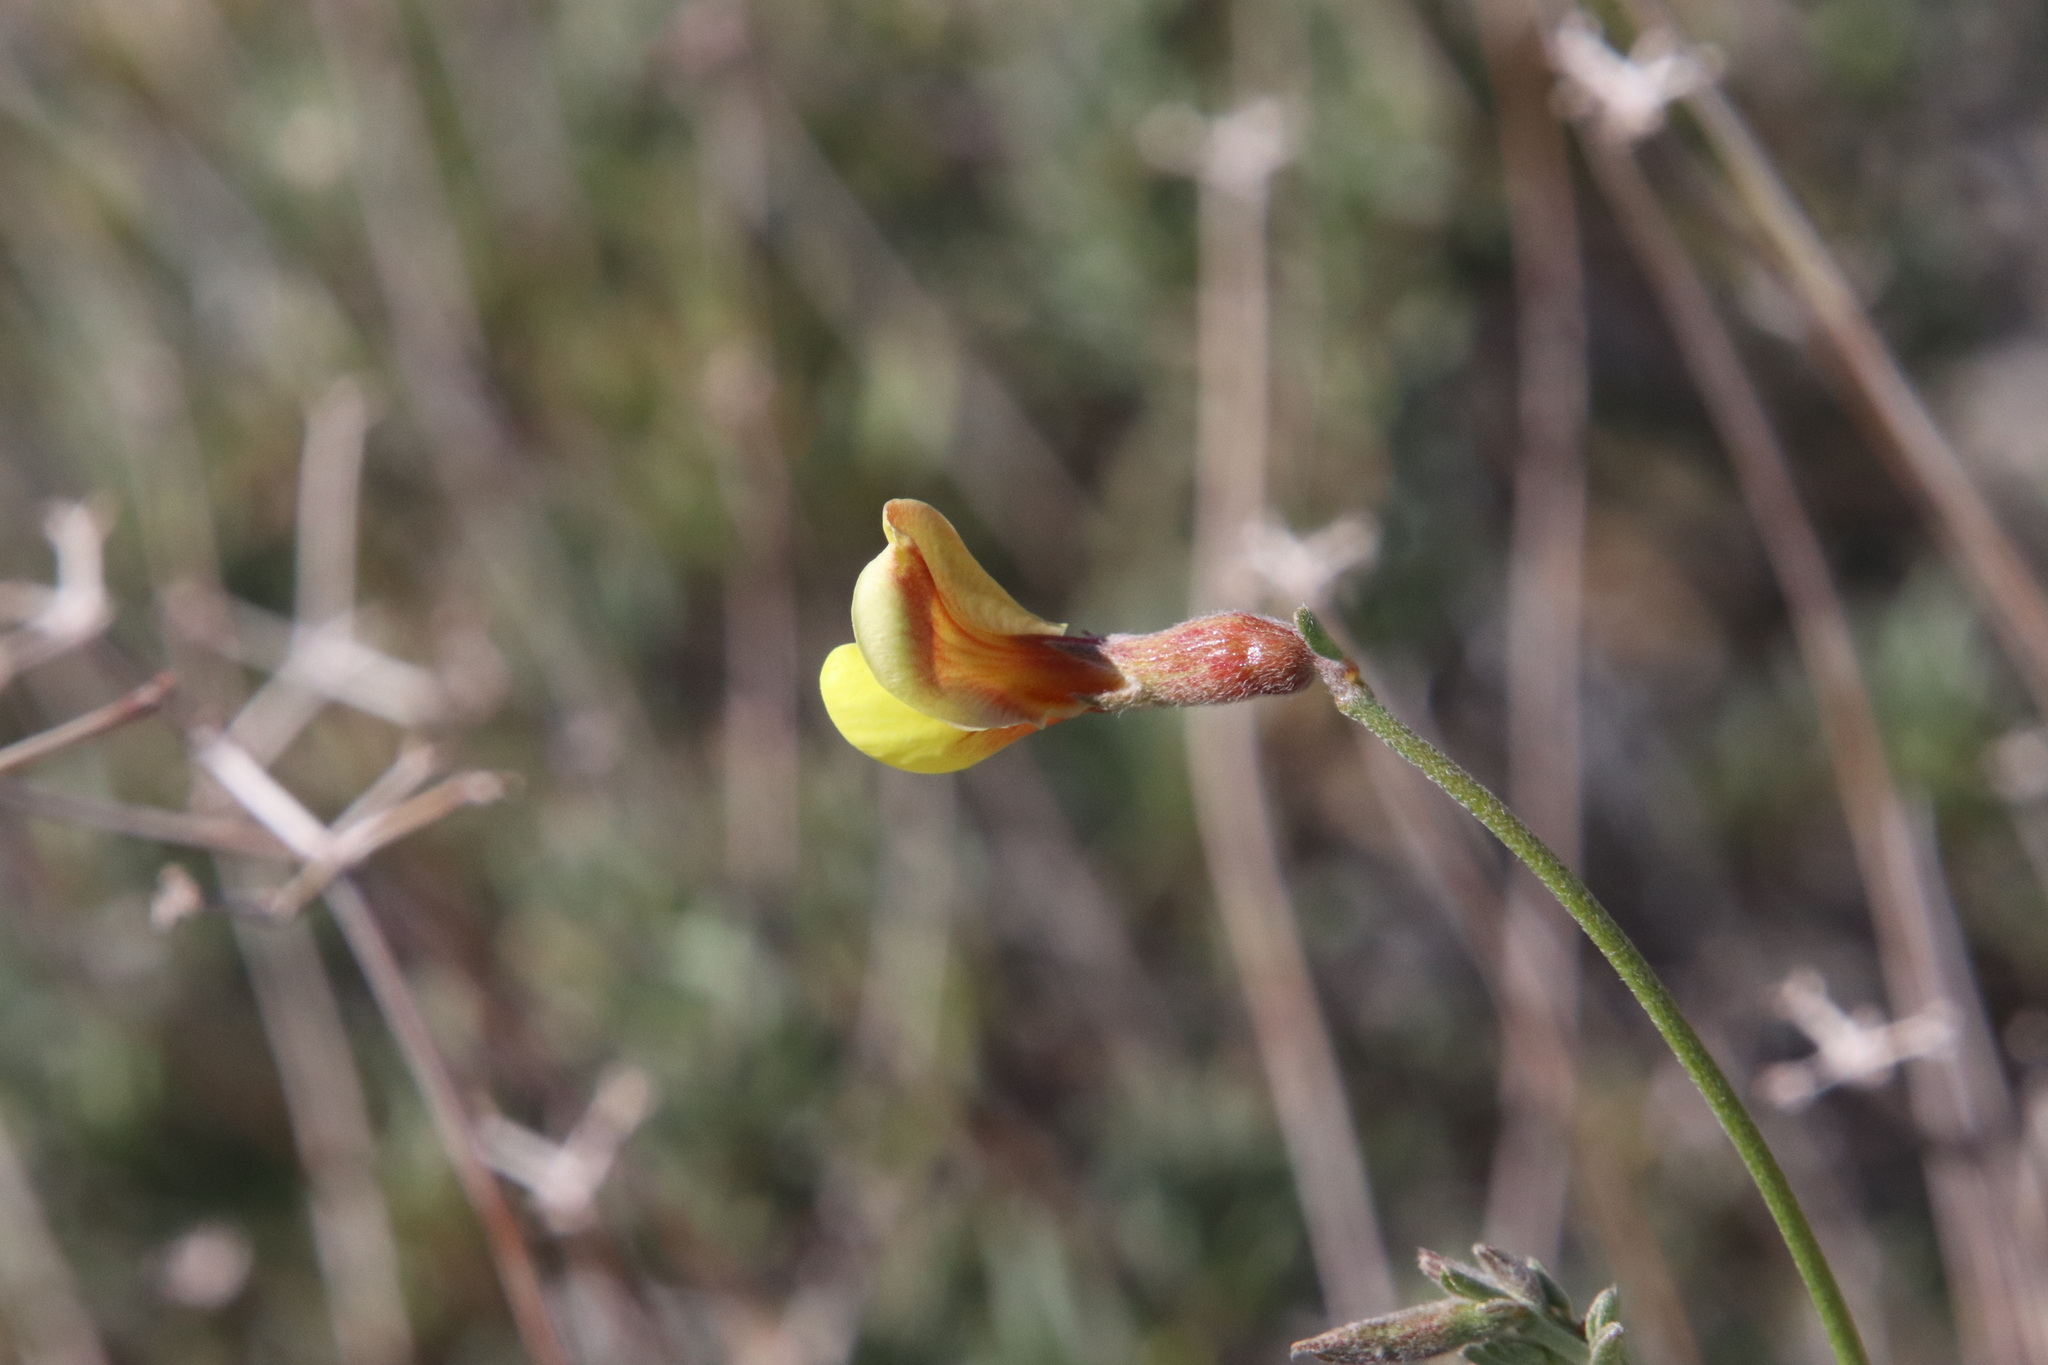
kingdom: Plantae
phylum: Tracheophyta
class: Magnoliopsida
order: Fabales
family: Fabaceae
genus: Acmispon
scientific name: Acmispon rigidus
